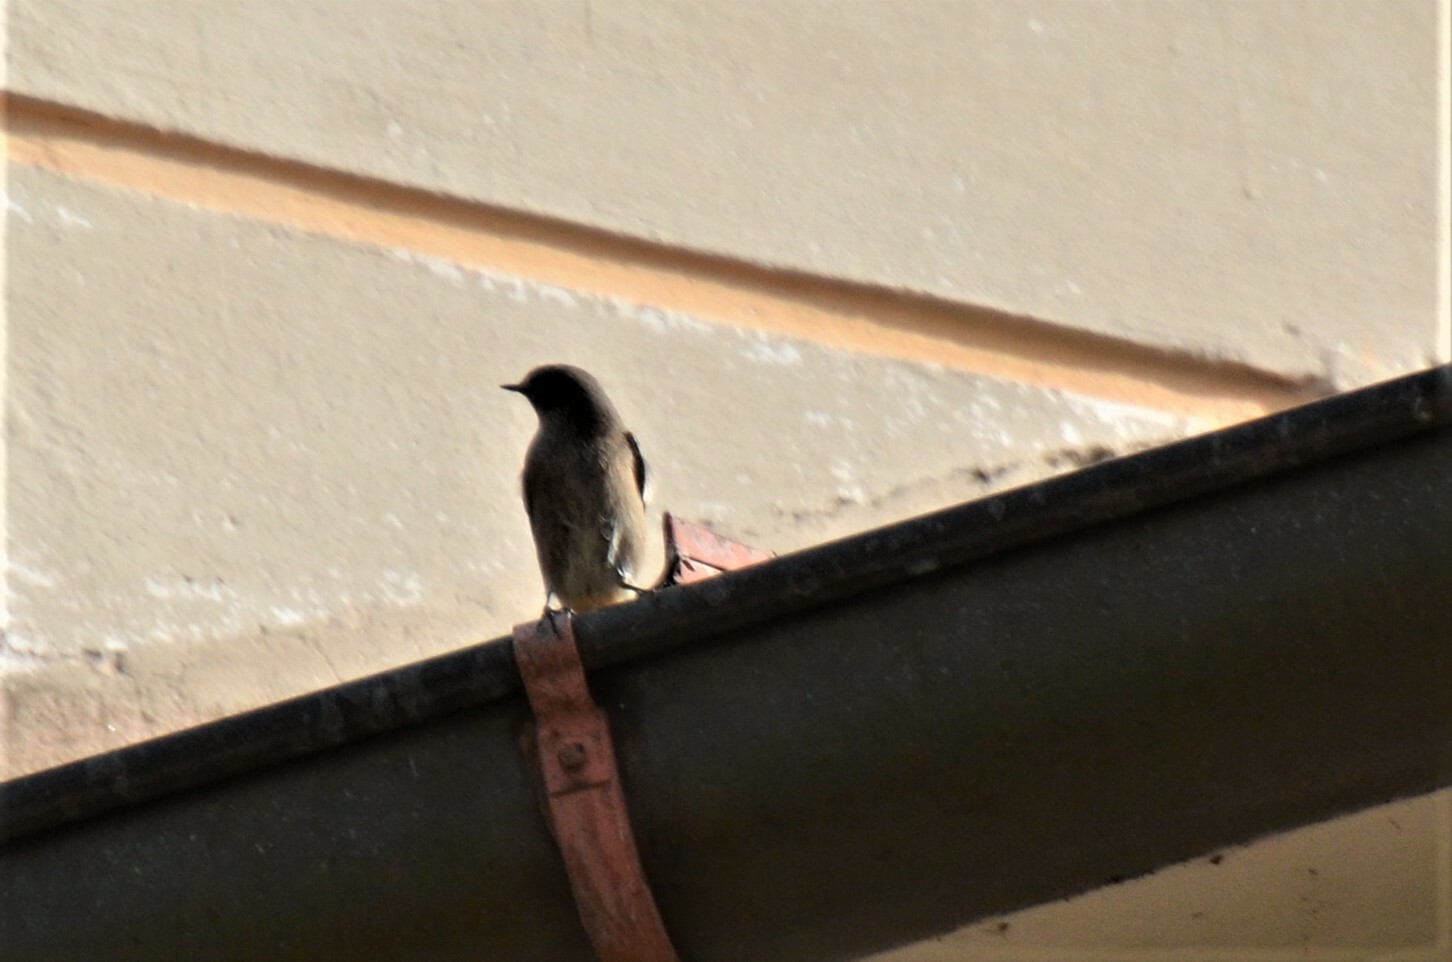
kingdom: Animalia
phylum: Chordata
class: Aves
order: Passeriformes
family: Muscicapidae
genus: Phoenicurus
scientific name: Phoenicurus ochruros
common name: Black redstart
